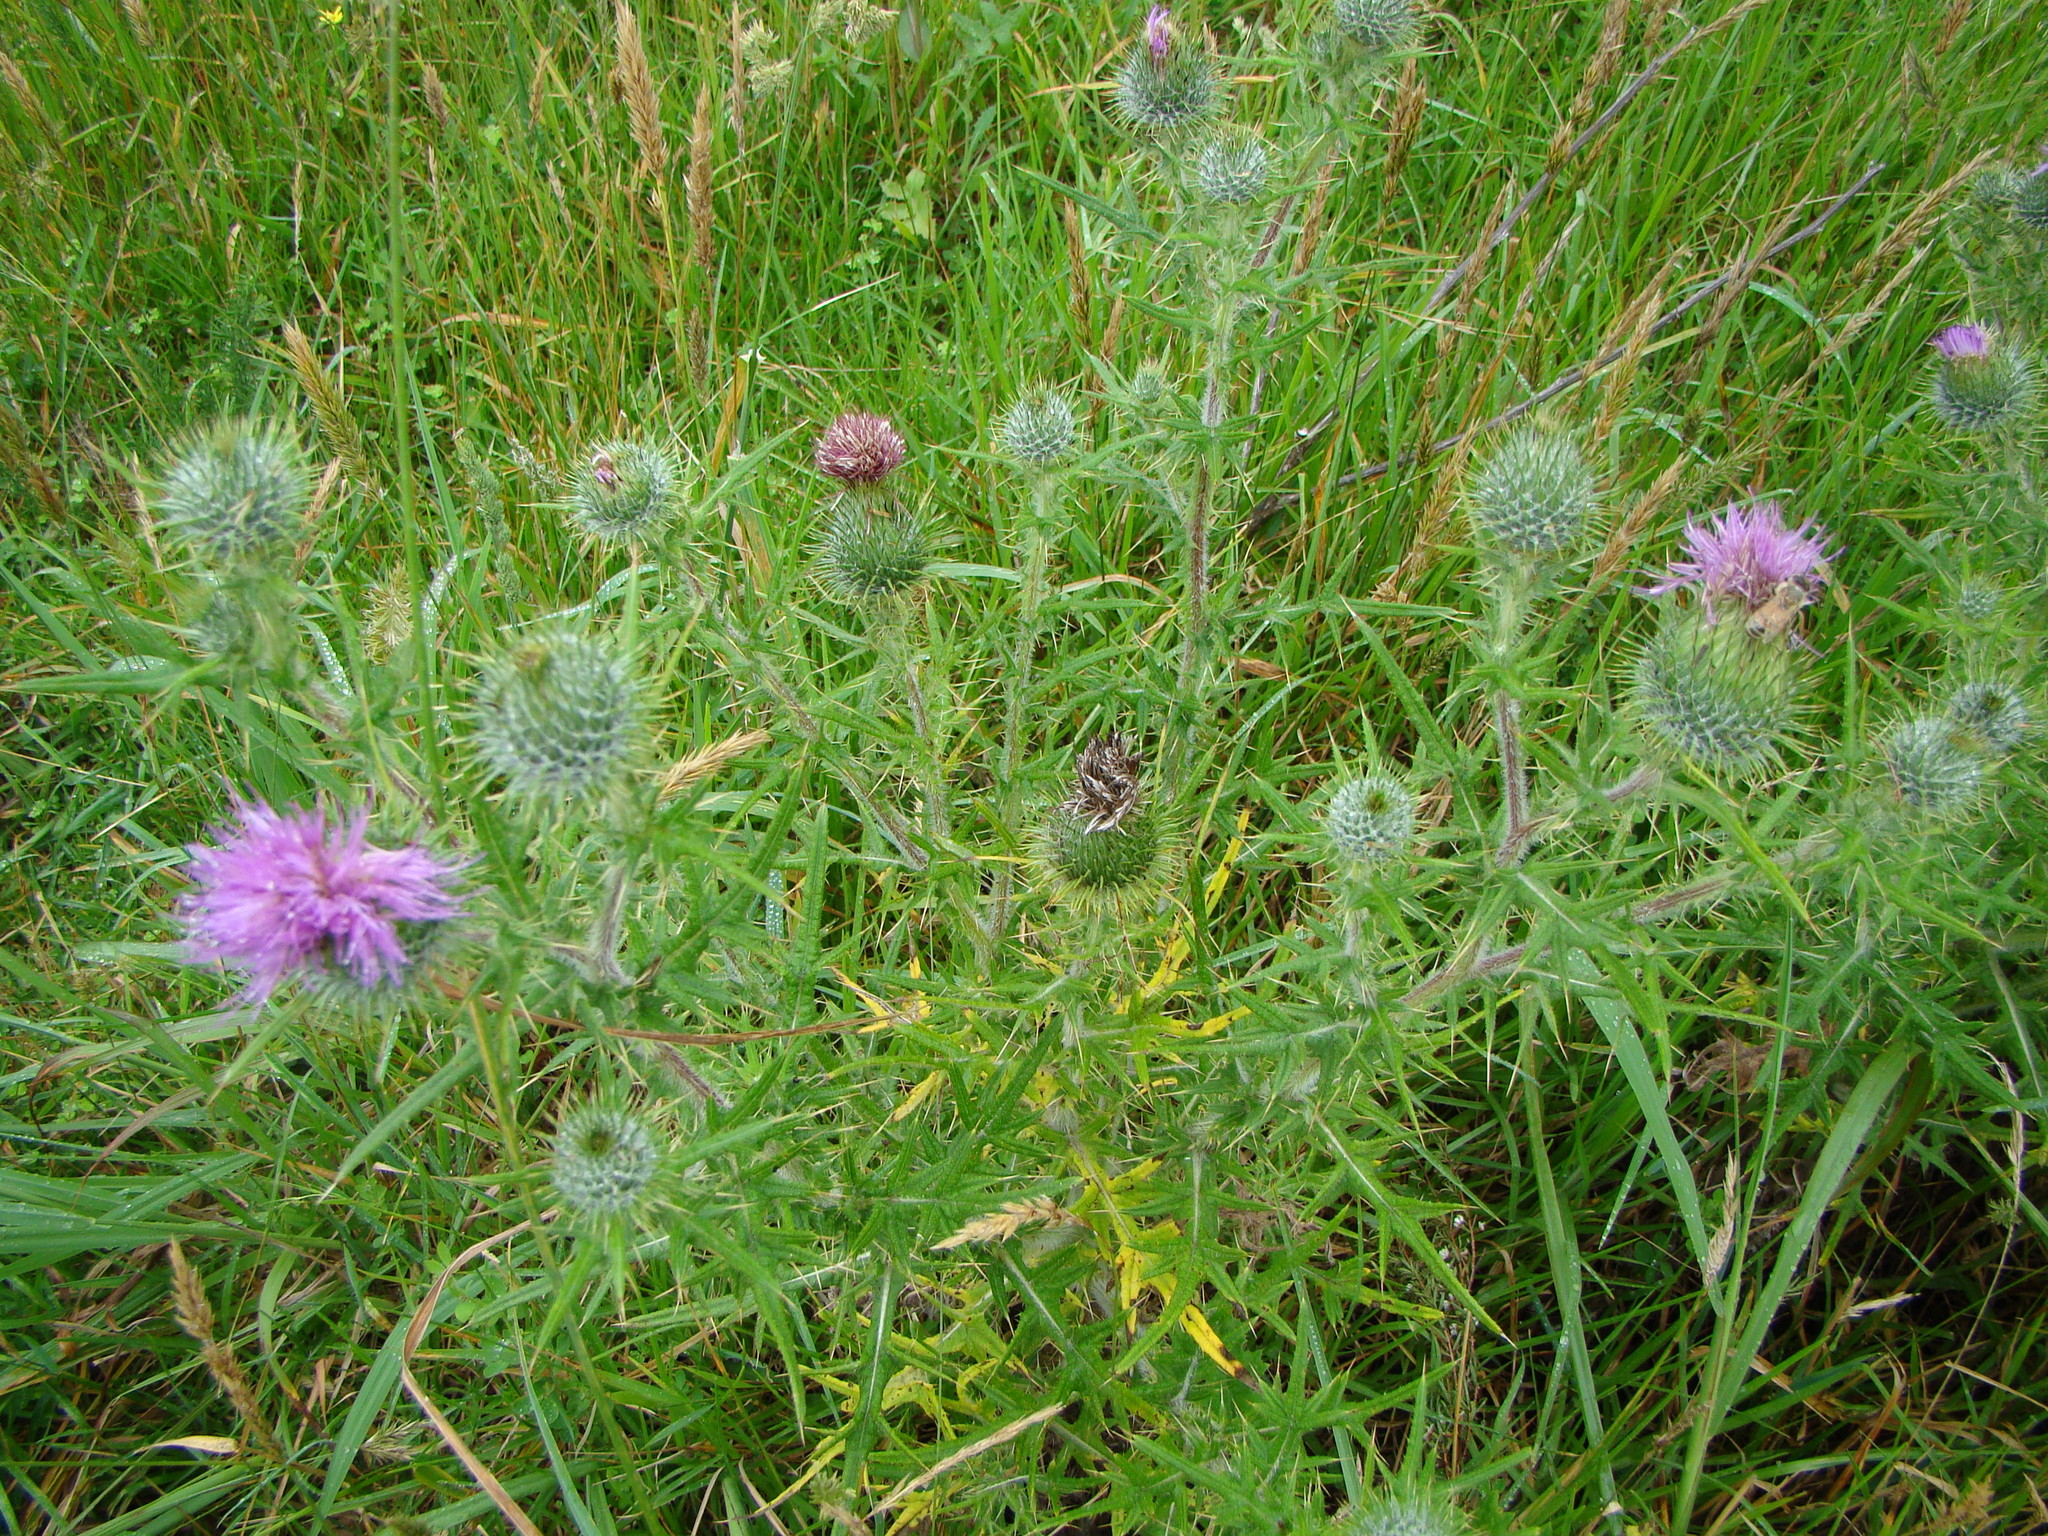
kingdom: Plantae
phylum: Tracheophyta
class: Magnoliopsida
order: Asterales
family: Asteraceae
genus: Cirsium
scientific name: Cirsium vulgare
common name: Bull thistle
